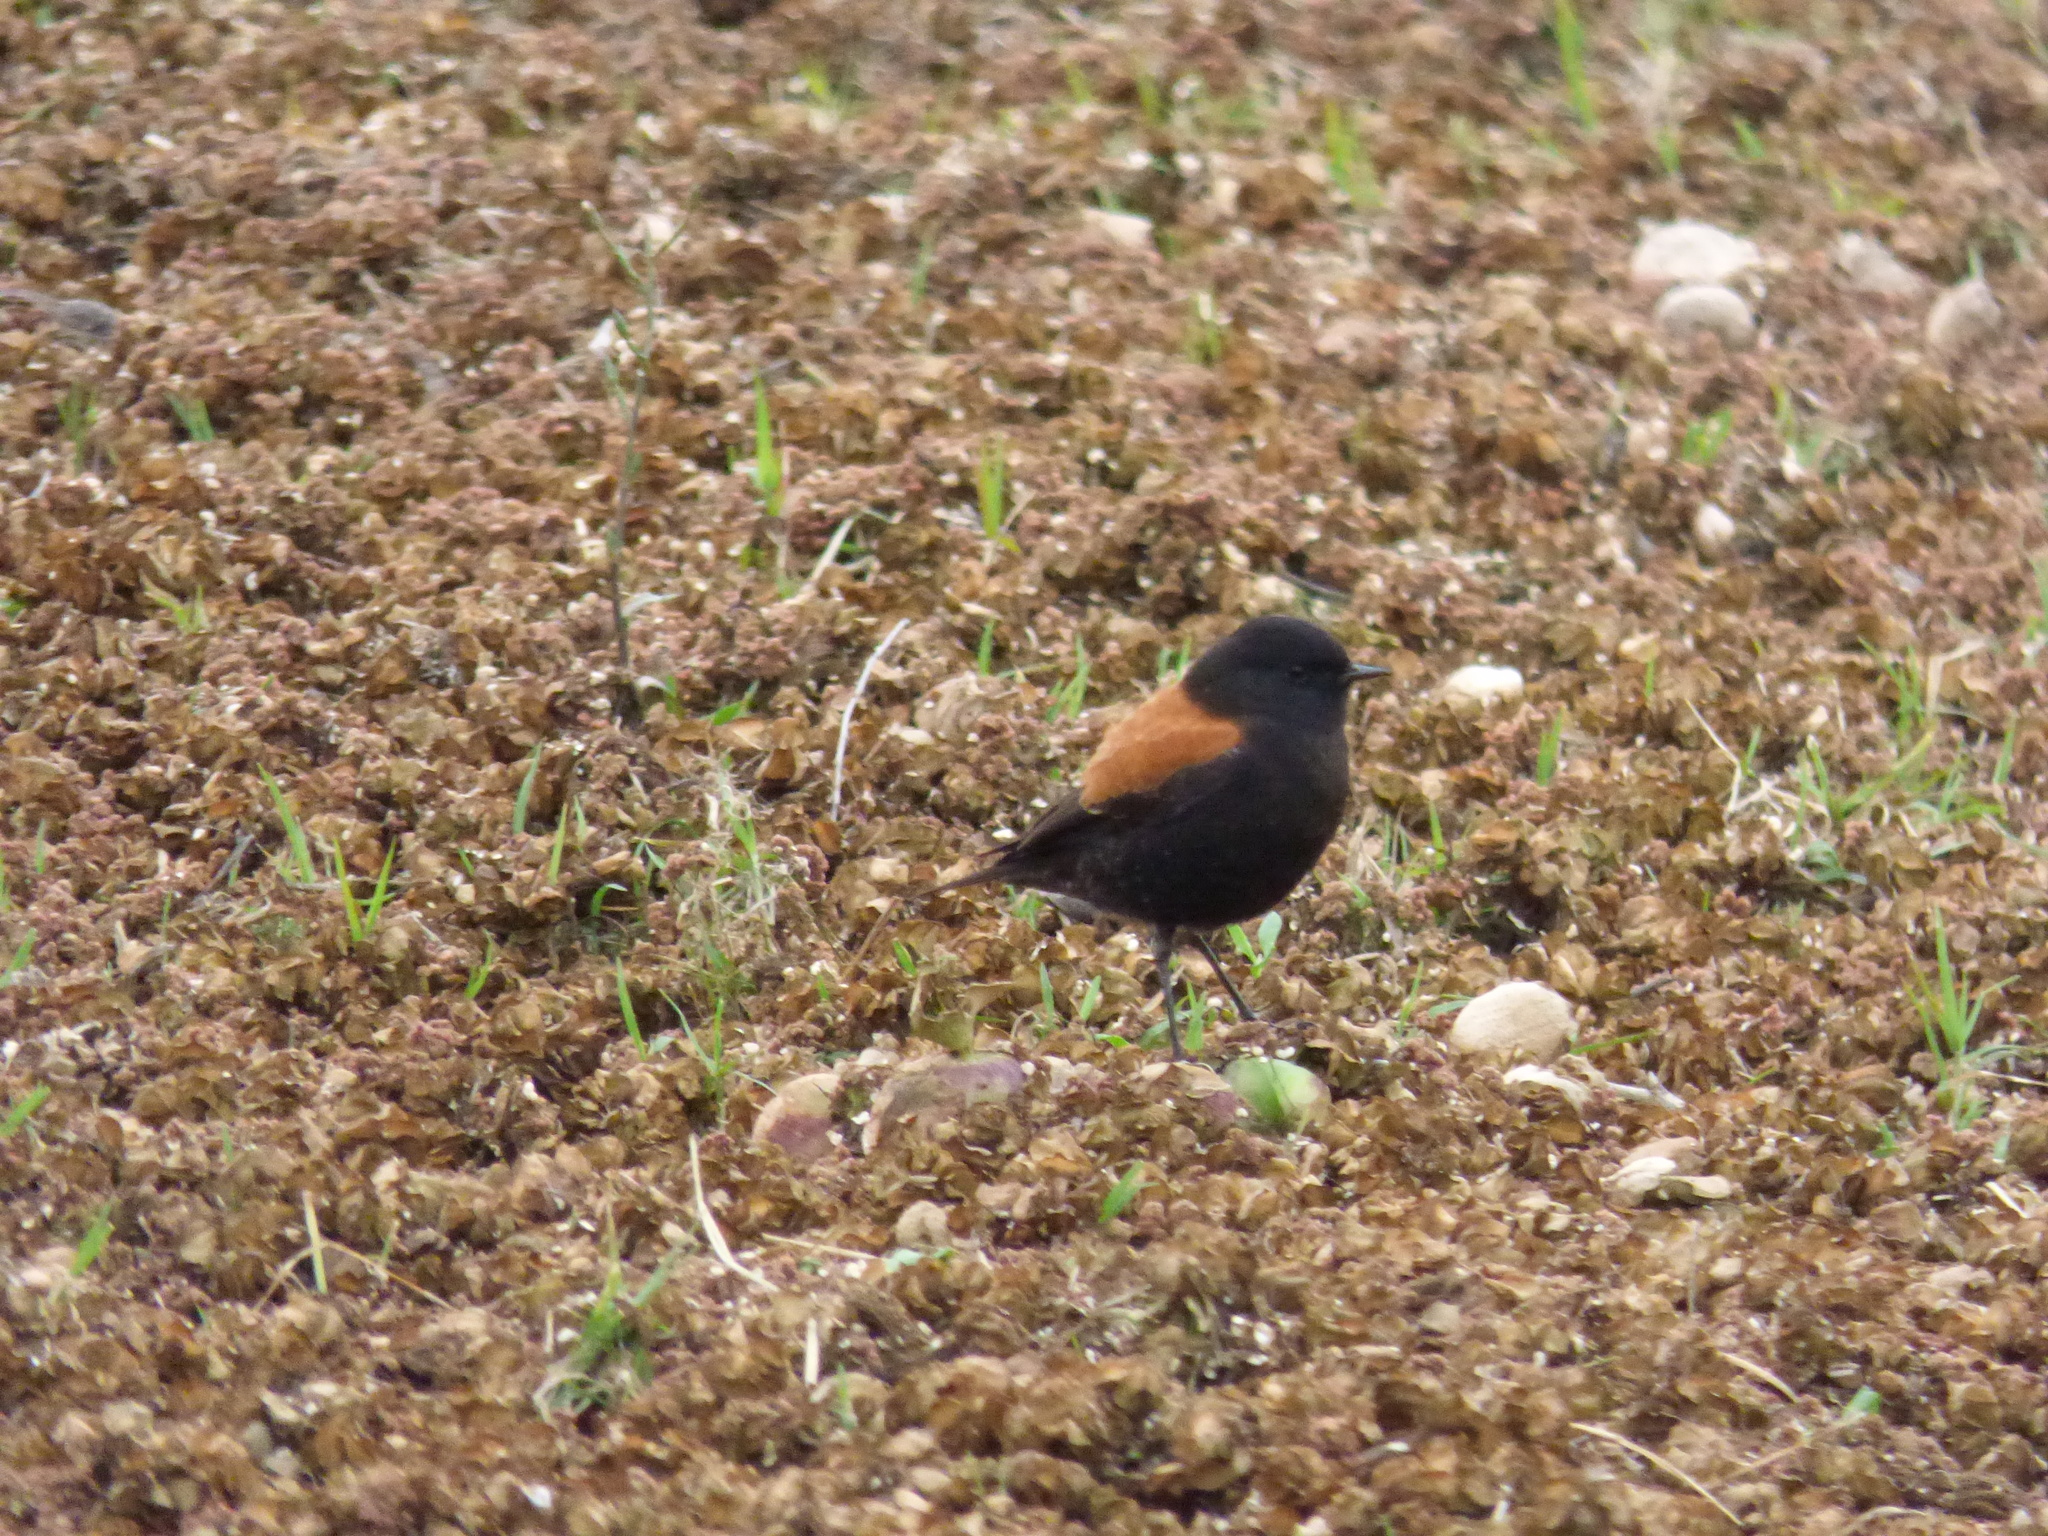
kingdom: Animalia
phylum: Chordata
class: Aves
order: Passeriformes
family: Tyrannidae
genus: Lessonia
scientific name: Lessonia rufa
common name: Austral negrito
